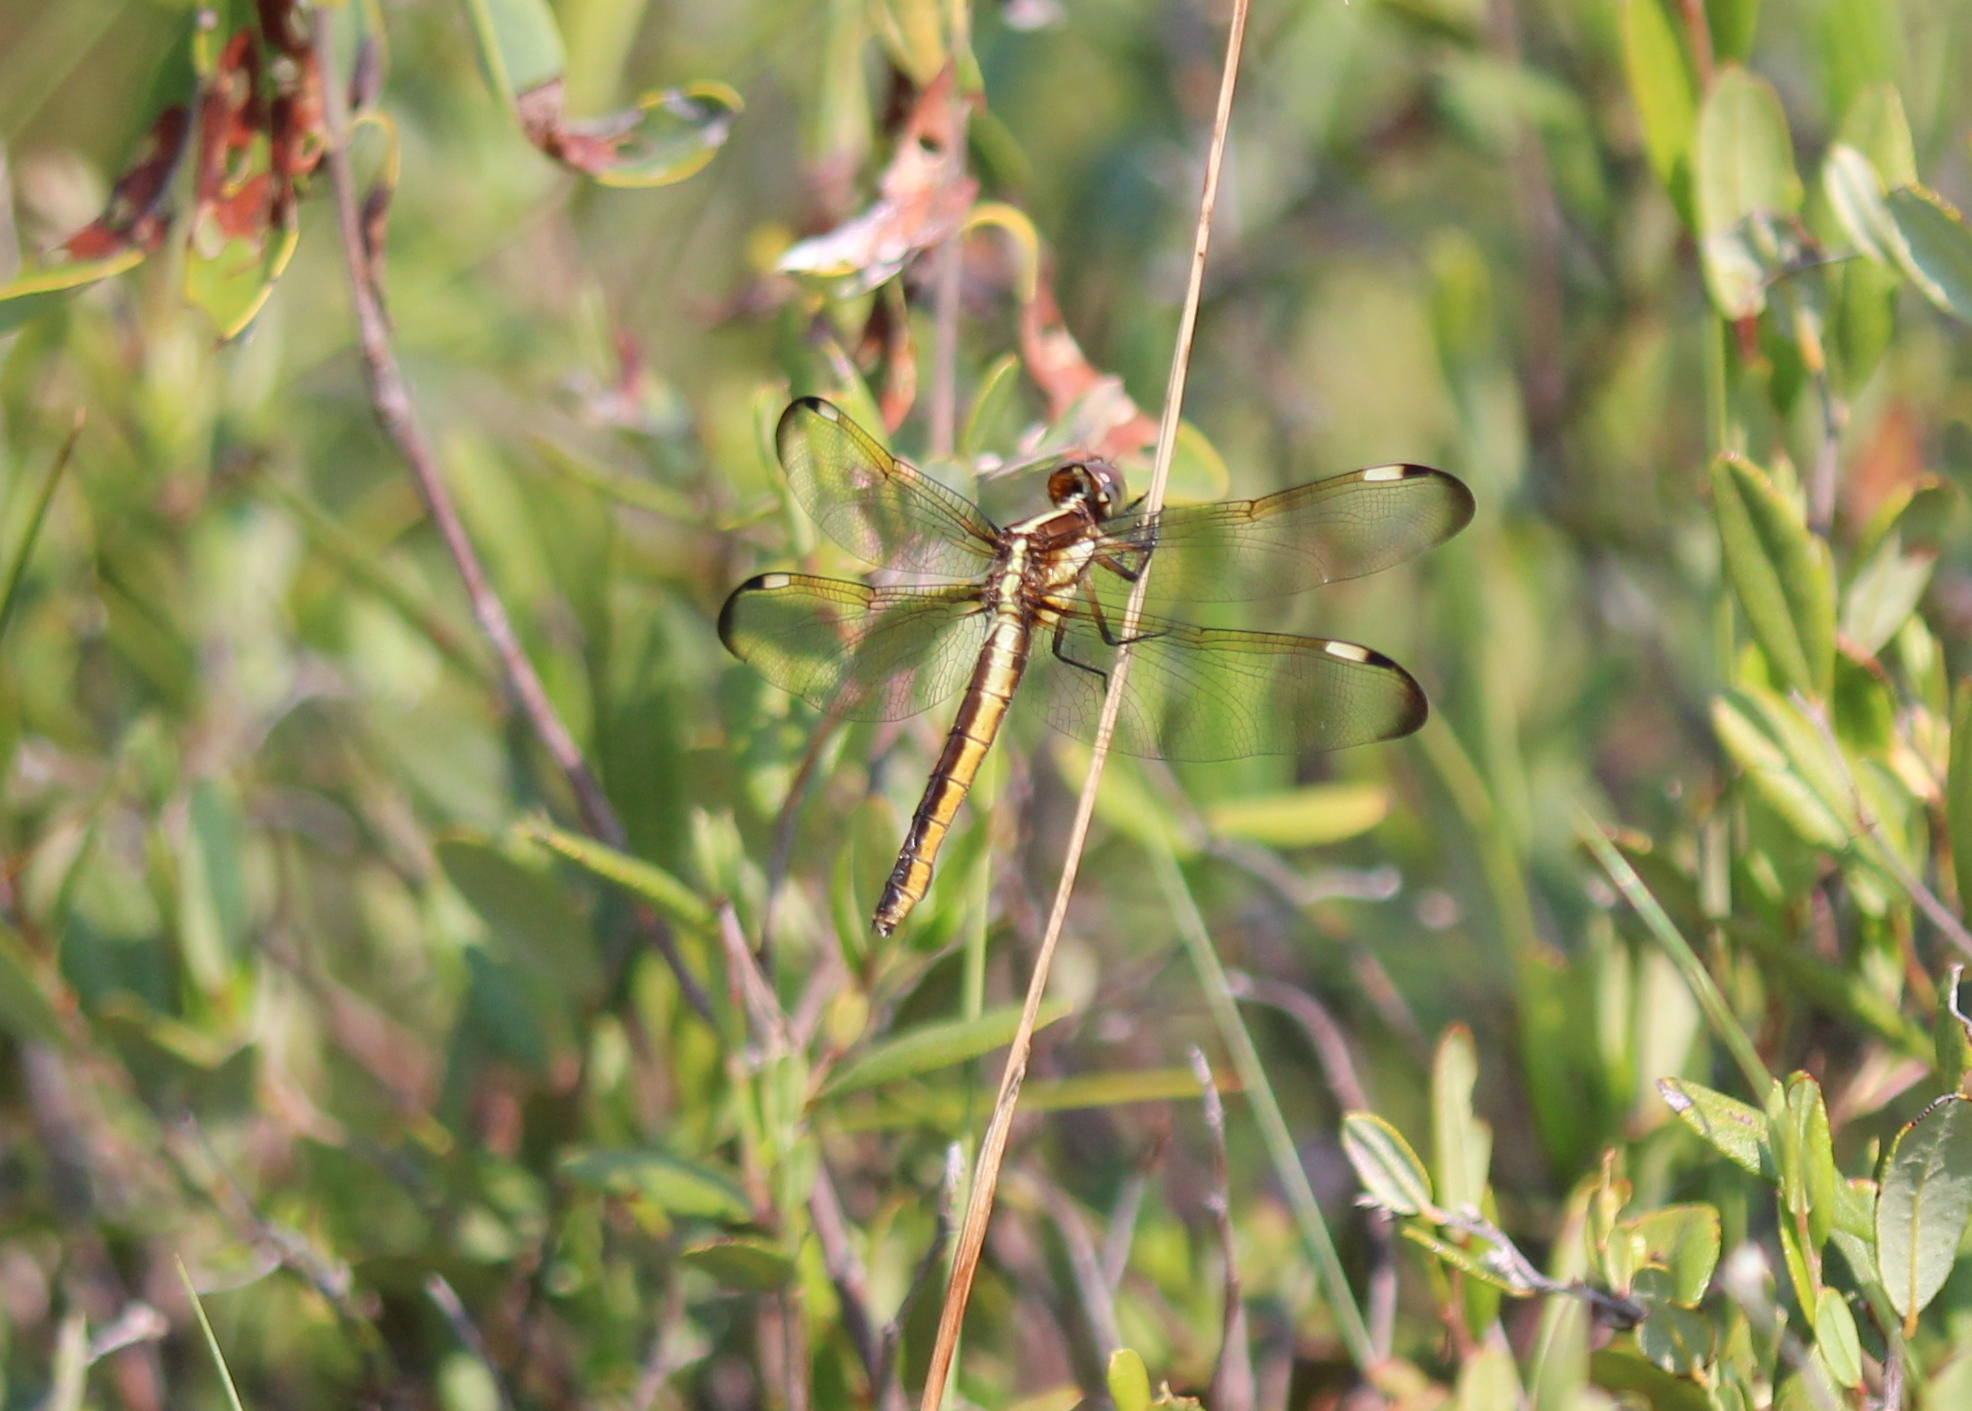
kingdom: Animalia
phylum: Arthropoda
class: Insecta
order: Odonata
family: Libellulidae
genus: Libellula
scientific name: Libellula cyanea
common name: Spangled skimmer
